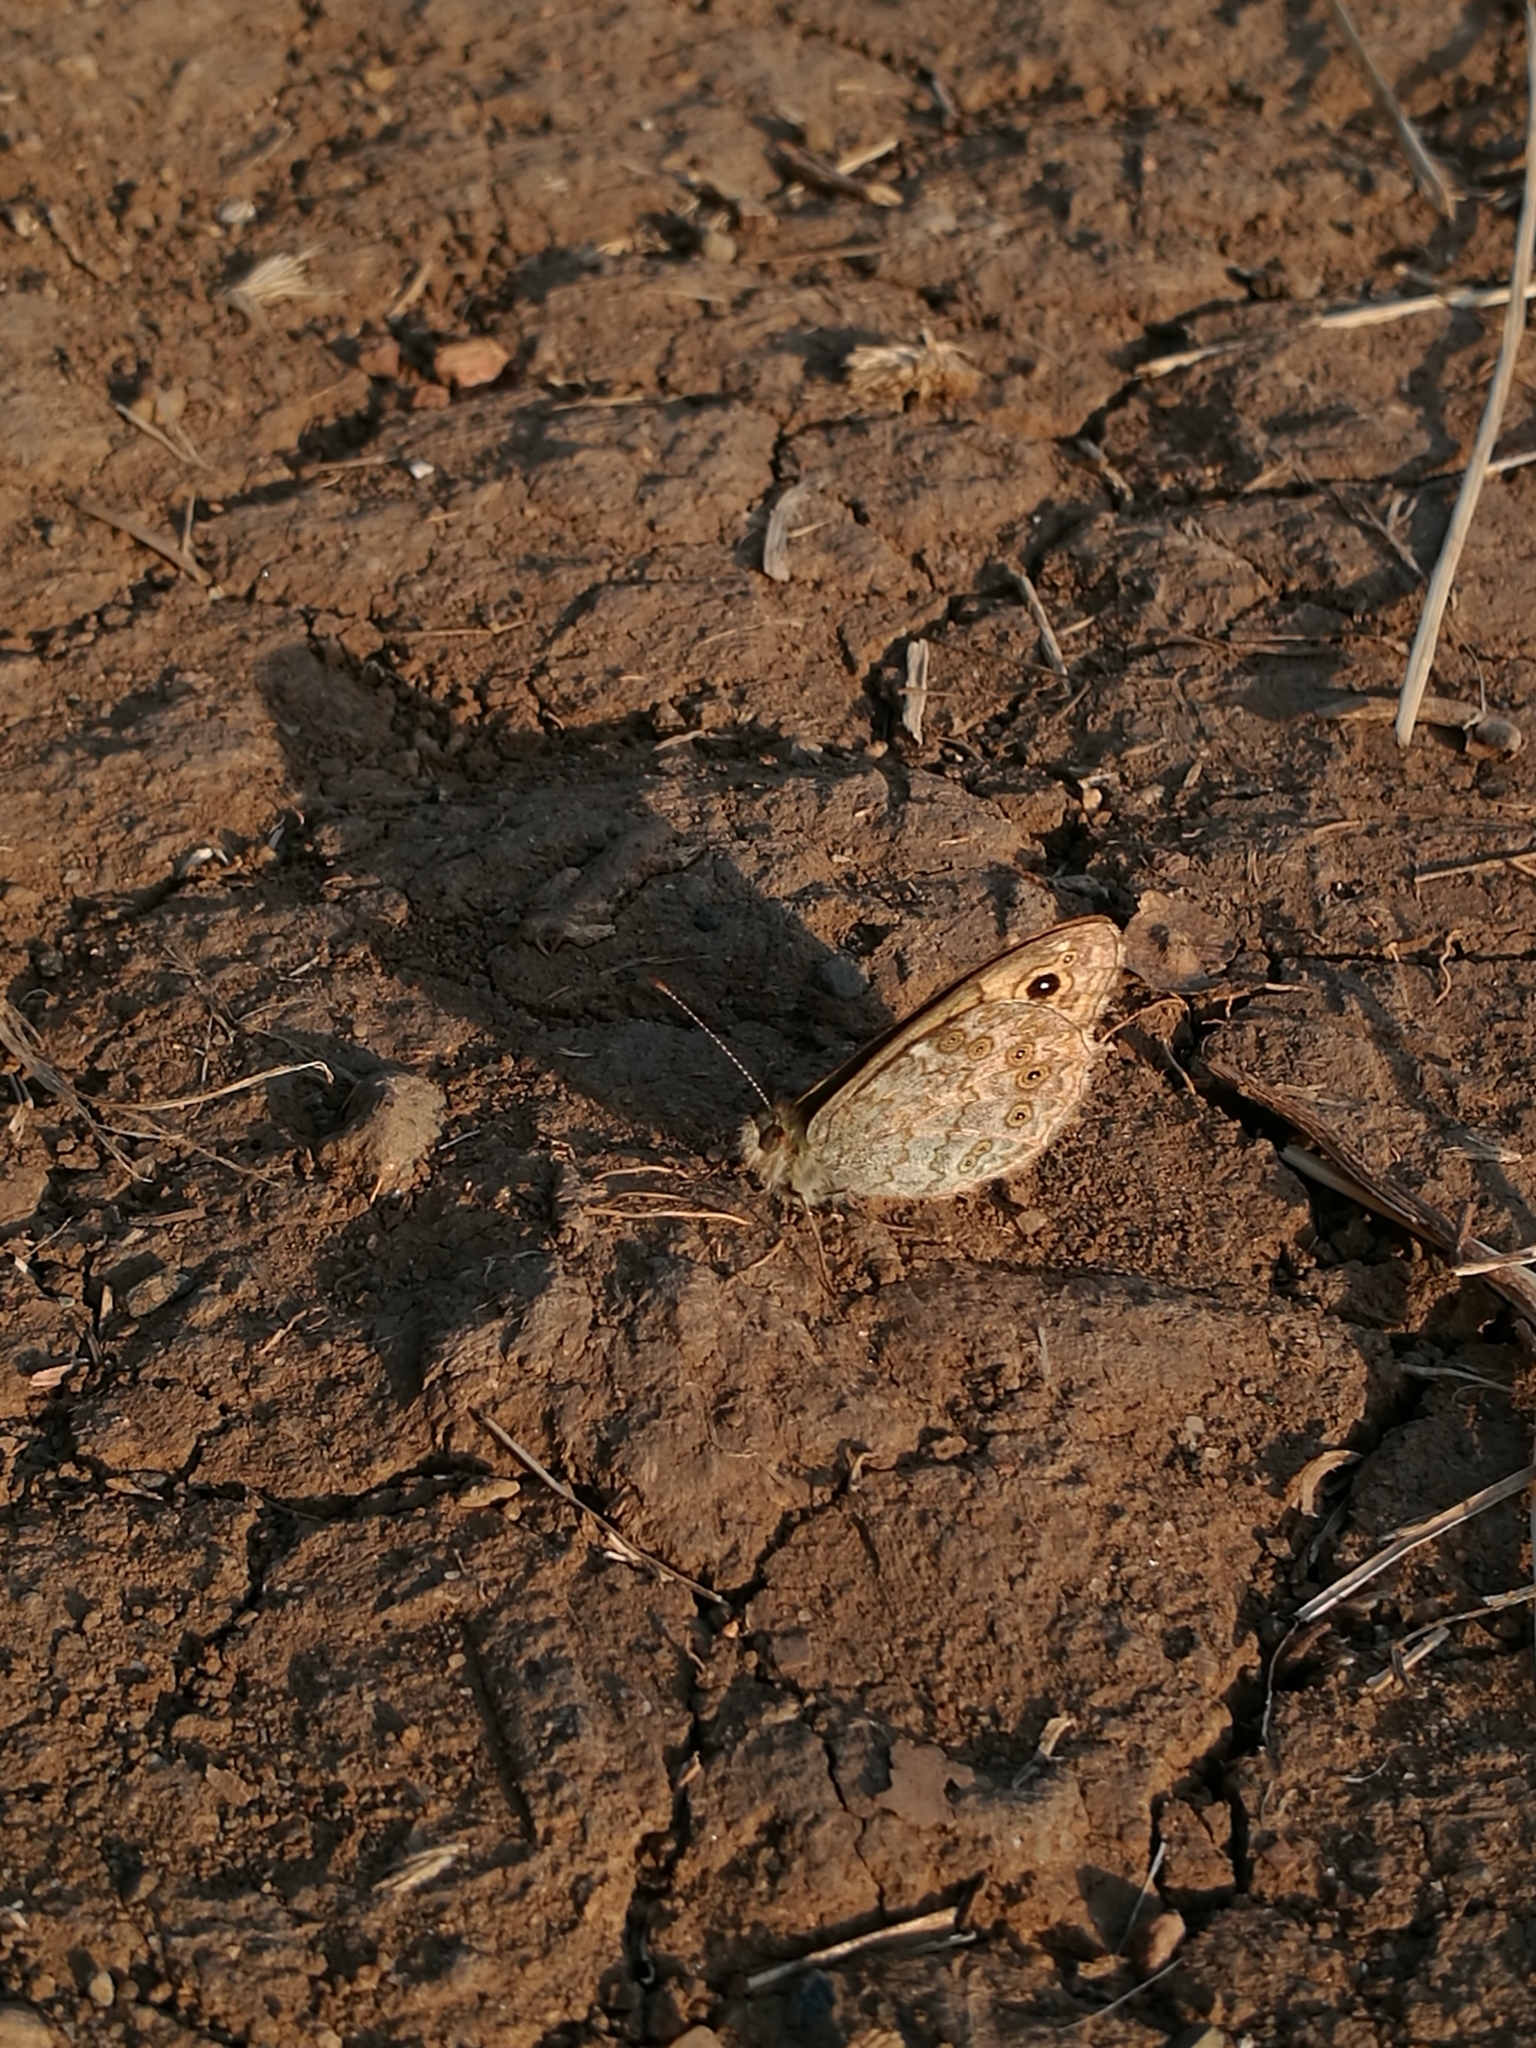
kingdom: Animalia
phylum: Arthropoda
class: Insecta
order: Lepidoptera
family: Nymphalidae
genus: Pararge
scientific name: Pararge Lasiommata megera
